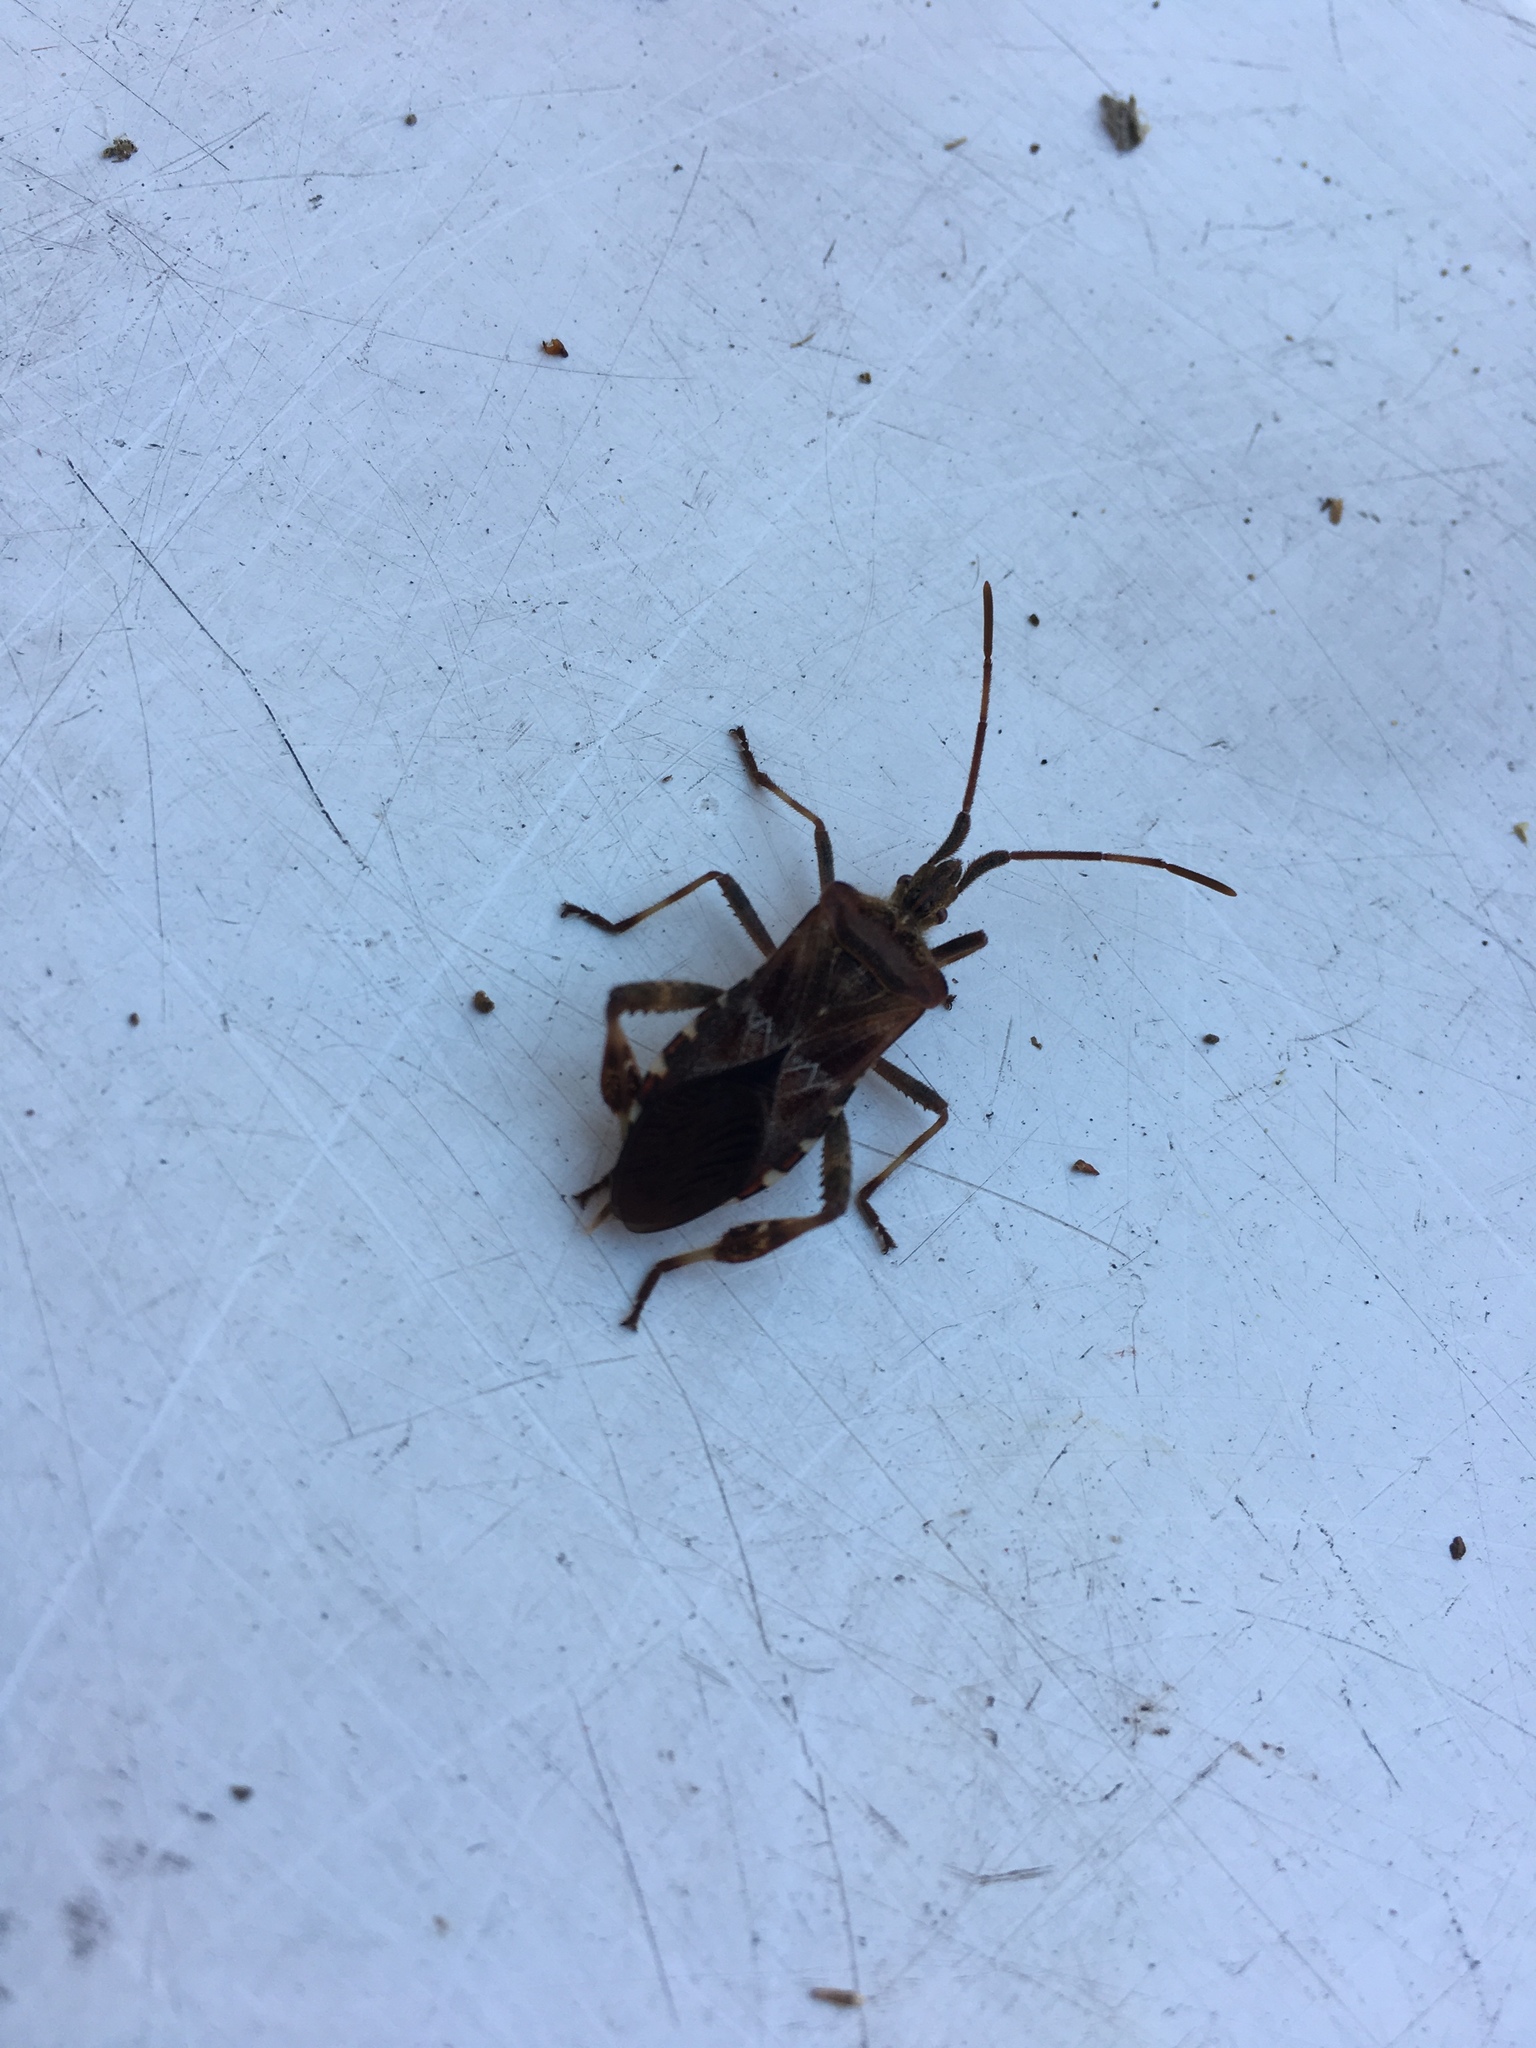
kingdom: Animalia
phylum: Arthropoda
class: Insecta
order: Hemiptera
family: Coreidae
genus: Leptoglossus
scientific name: Leptoglossus occidentalis
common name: Western conifer-seed bug
